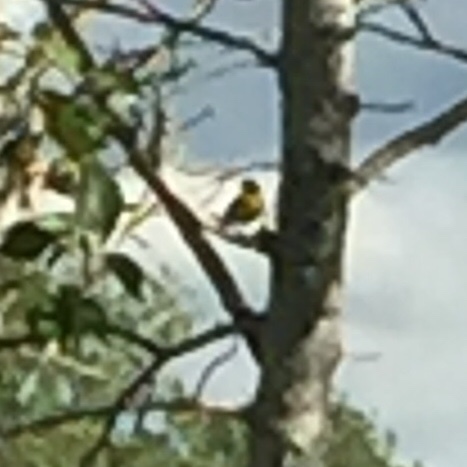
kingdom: Animalia
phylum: Chordata
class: Aves
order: Passeriformes
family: Parulidae
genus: Geothlypis
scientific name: Geothlypis trichas
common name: Common yellowthroat
